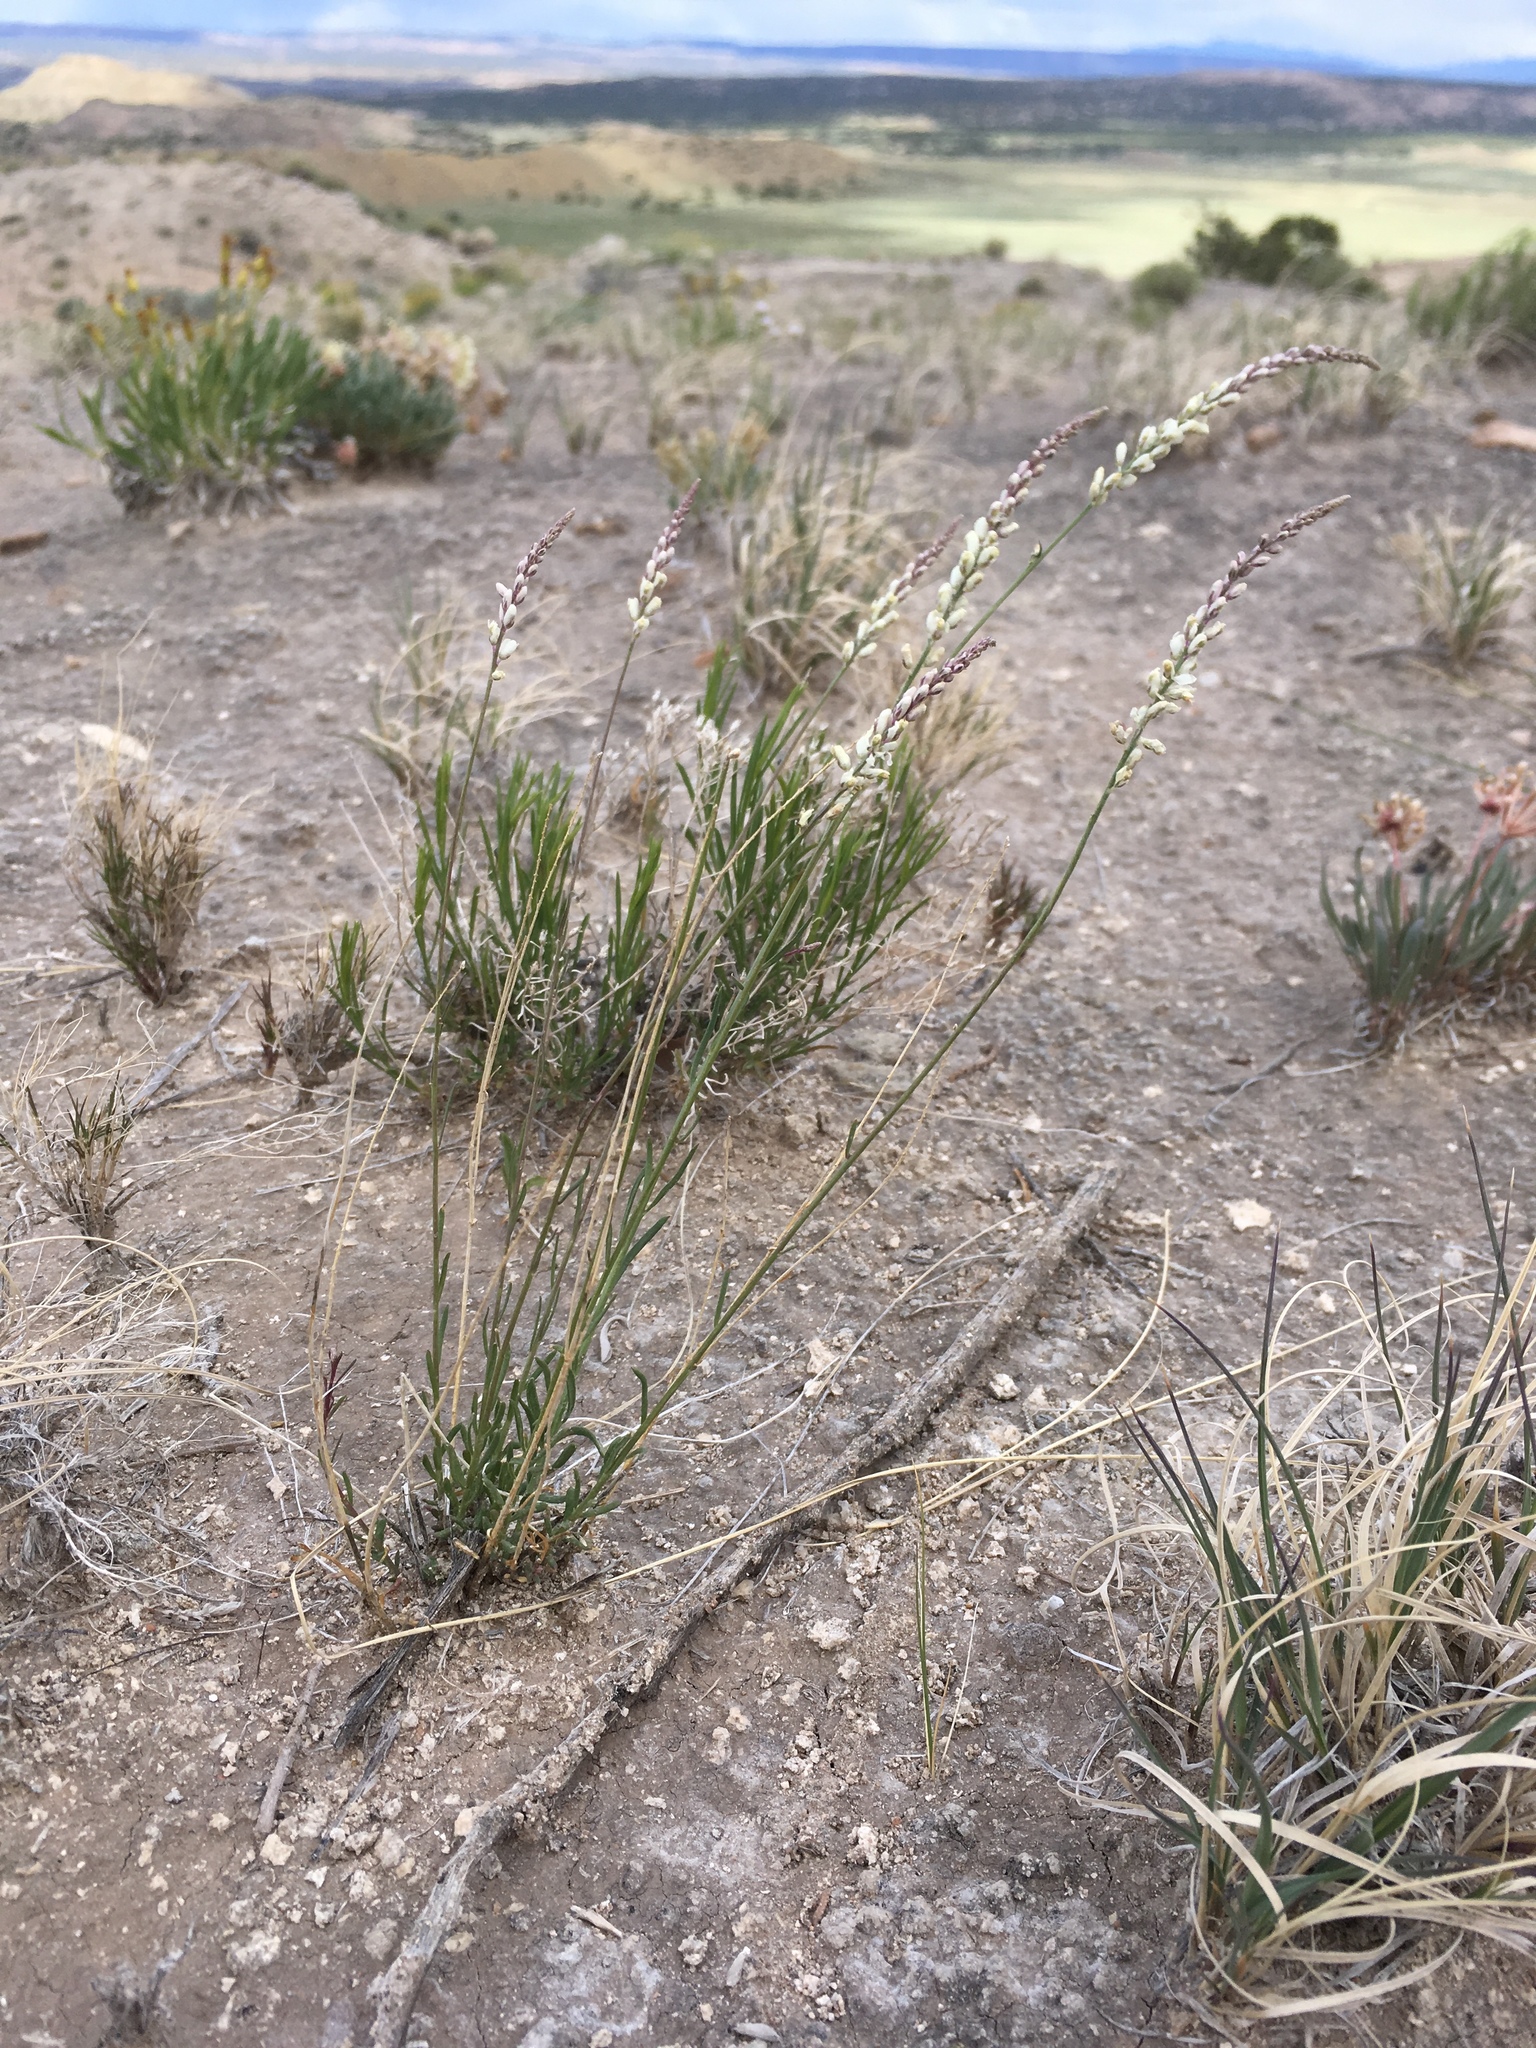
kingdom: Plantae
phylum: Tracheophyta
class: Magnoliopsida
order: Fabales
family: Polygalaceae
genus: Polygala
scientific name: Polygala alba
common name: White milkwort
